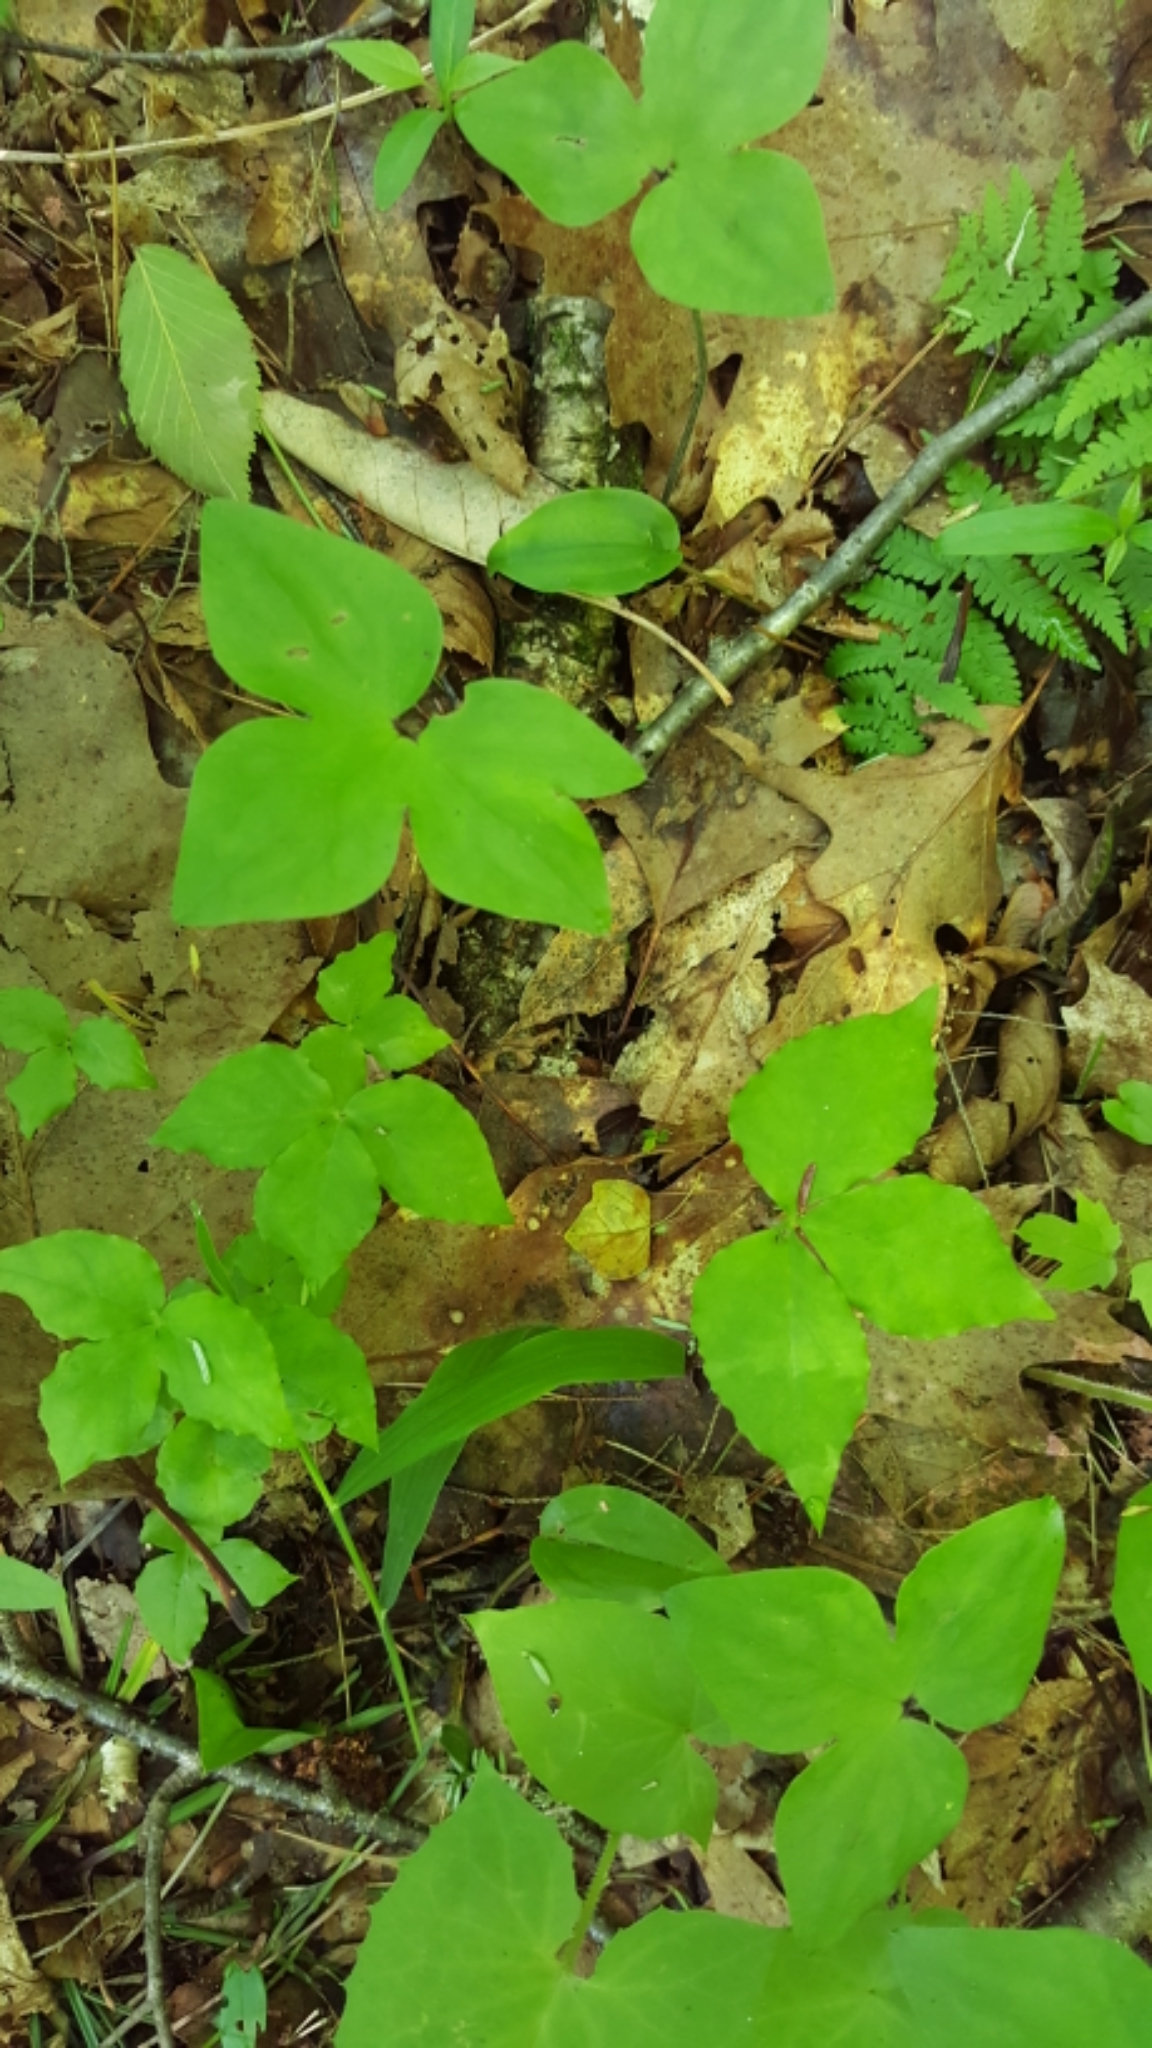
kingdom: Plantae
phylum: Tracheophyta
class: Magnoliopsida
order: Ranunculales
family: Ranunculaceae
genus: Hepatica
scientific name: Hepatica acutiloba
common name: Sharp-lobed hepatica
